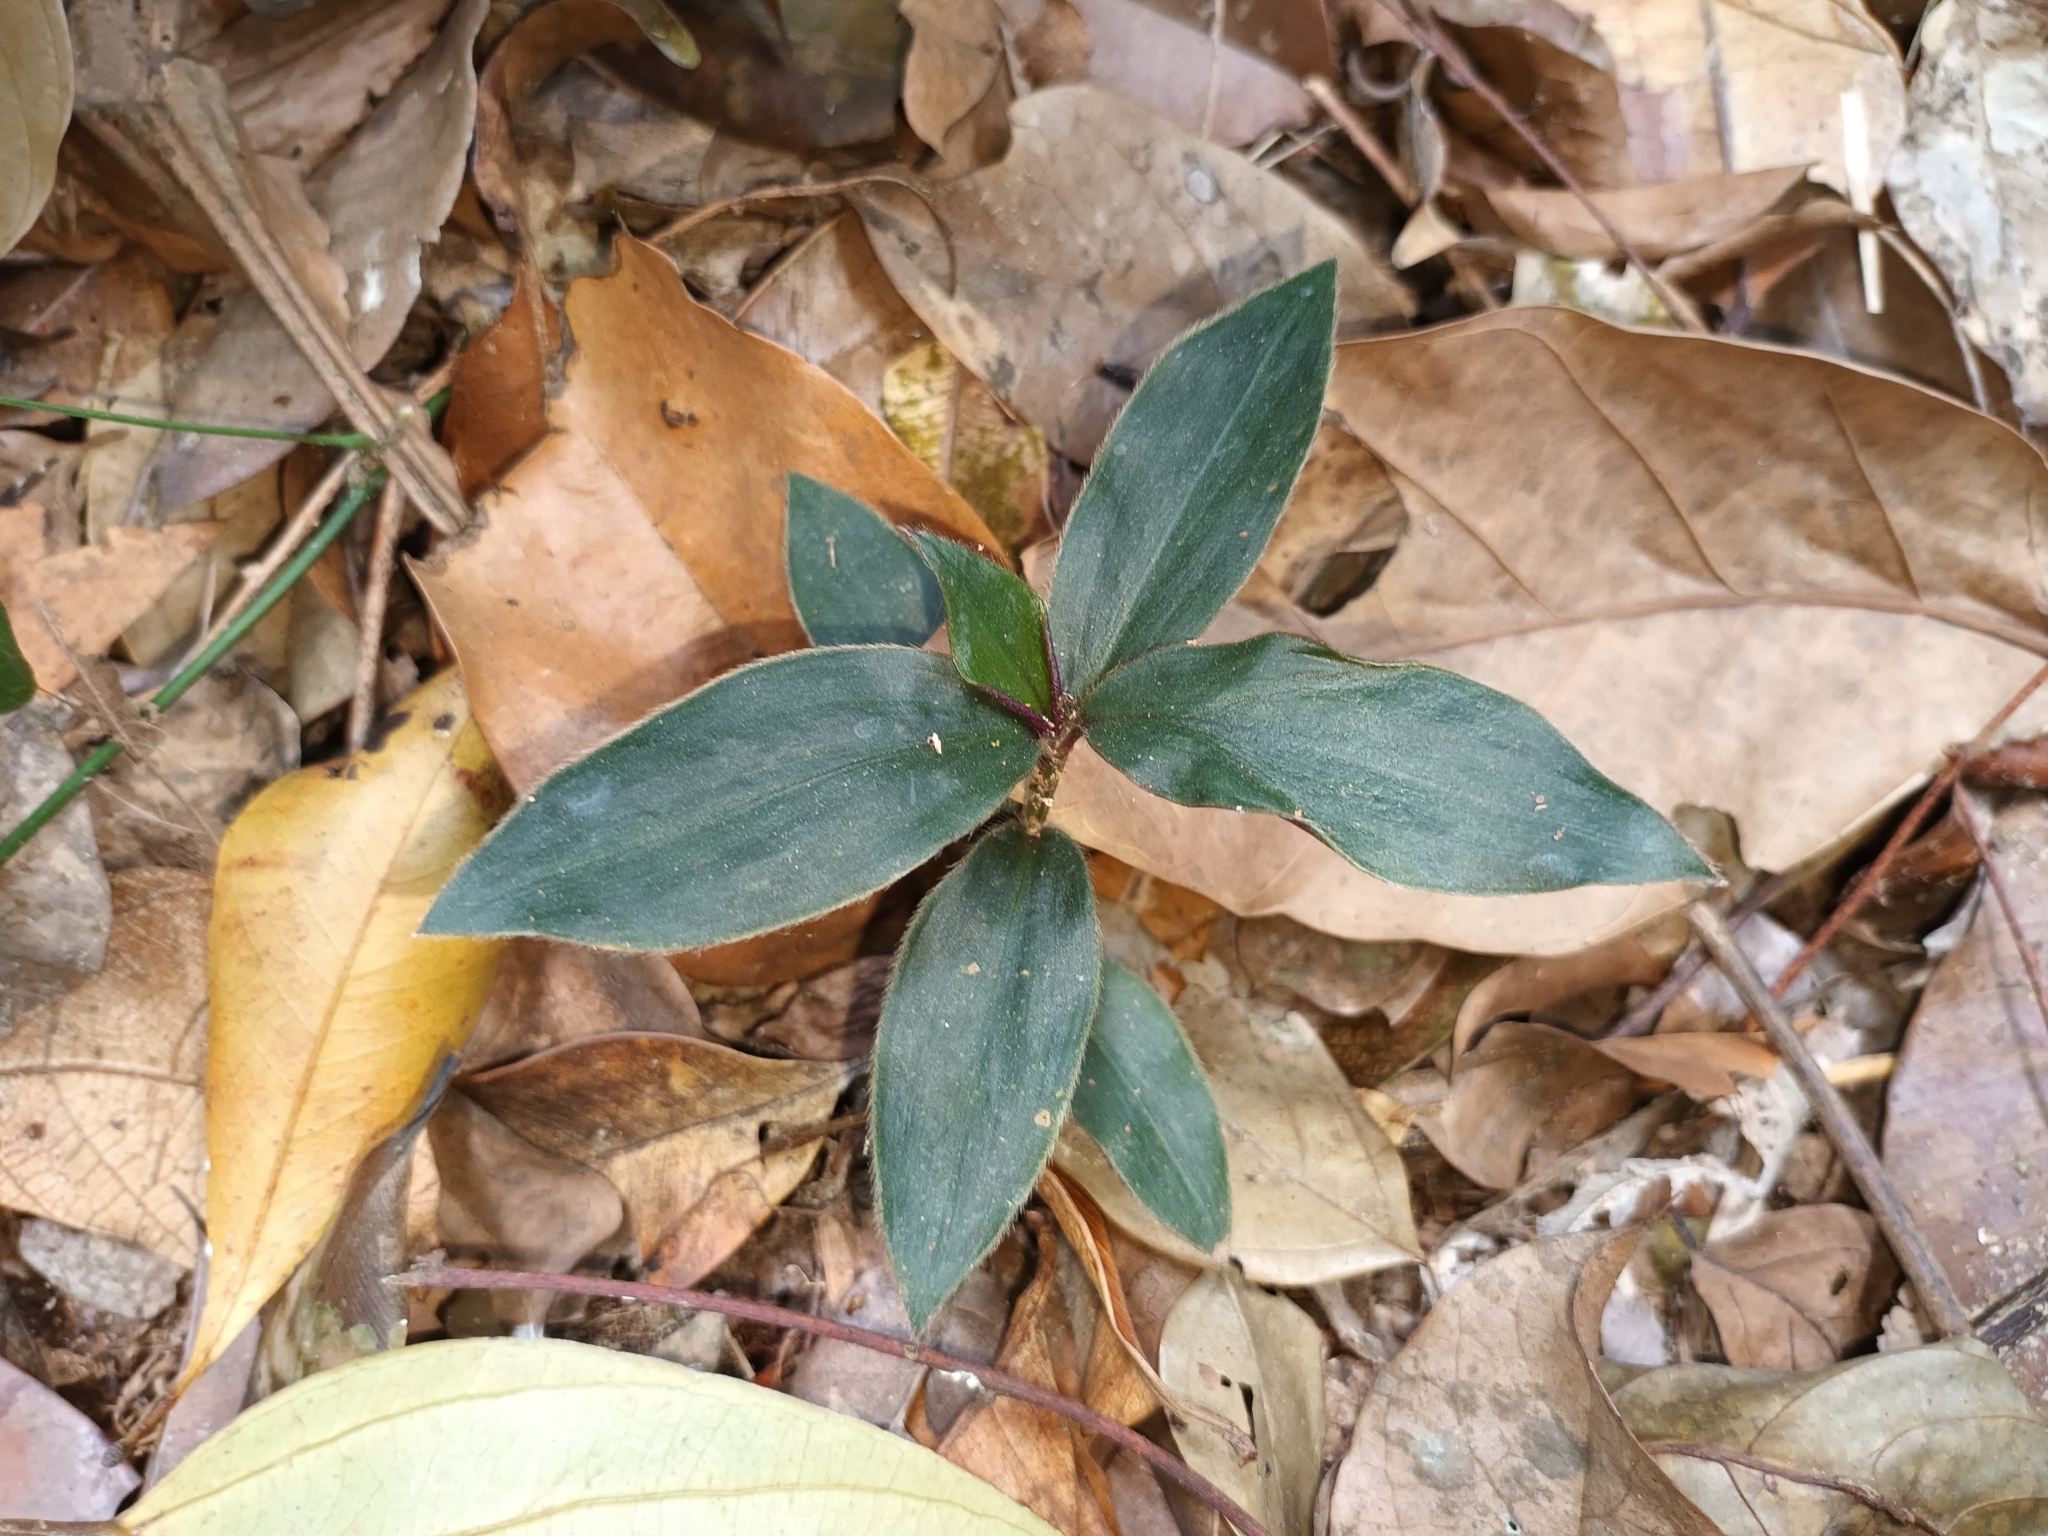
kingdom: Plantae
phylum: Tracheophyta
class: Liliopsida
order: Commelinales
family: Commelinaceae
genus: Amischotolype
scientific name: Amischotolype gracilis
